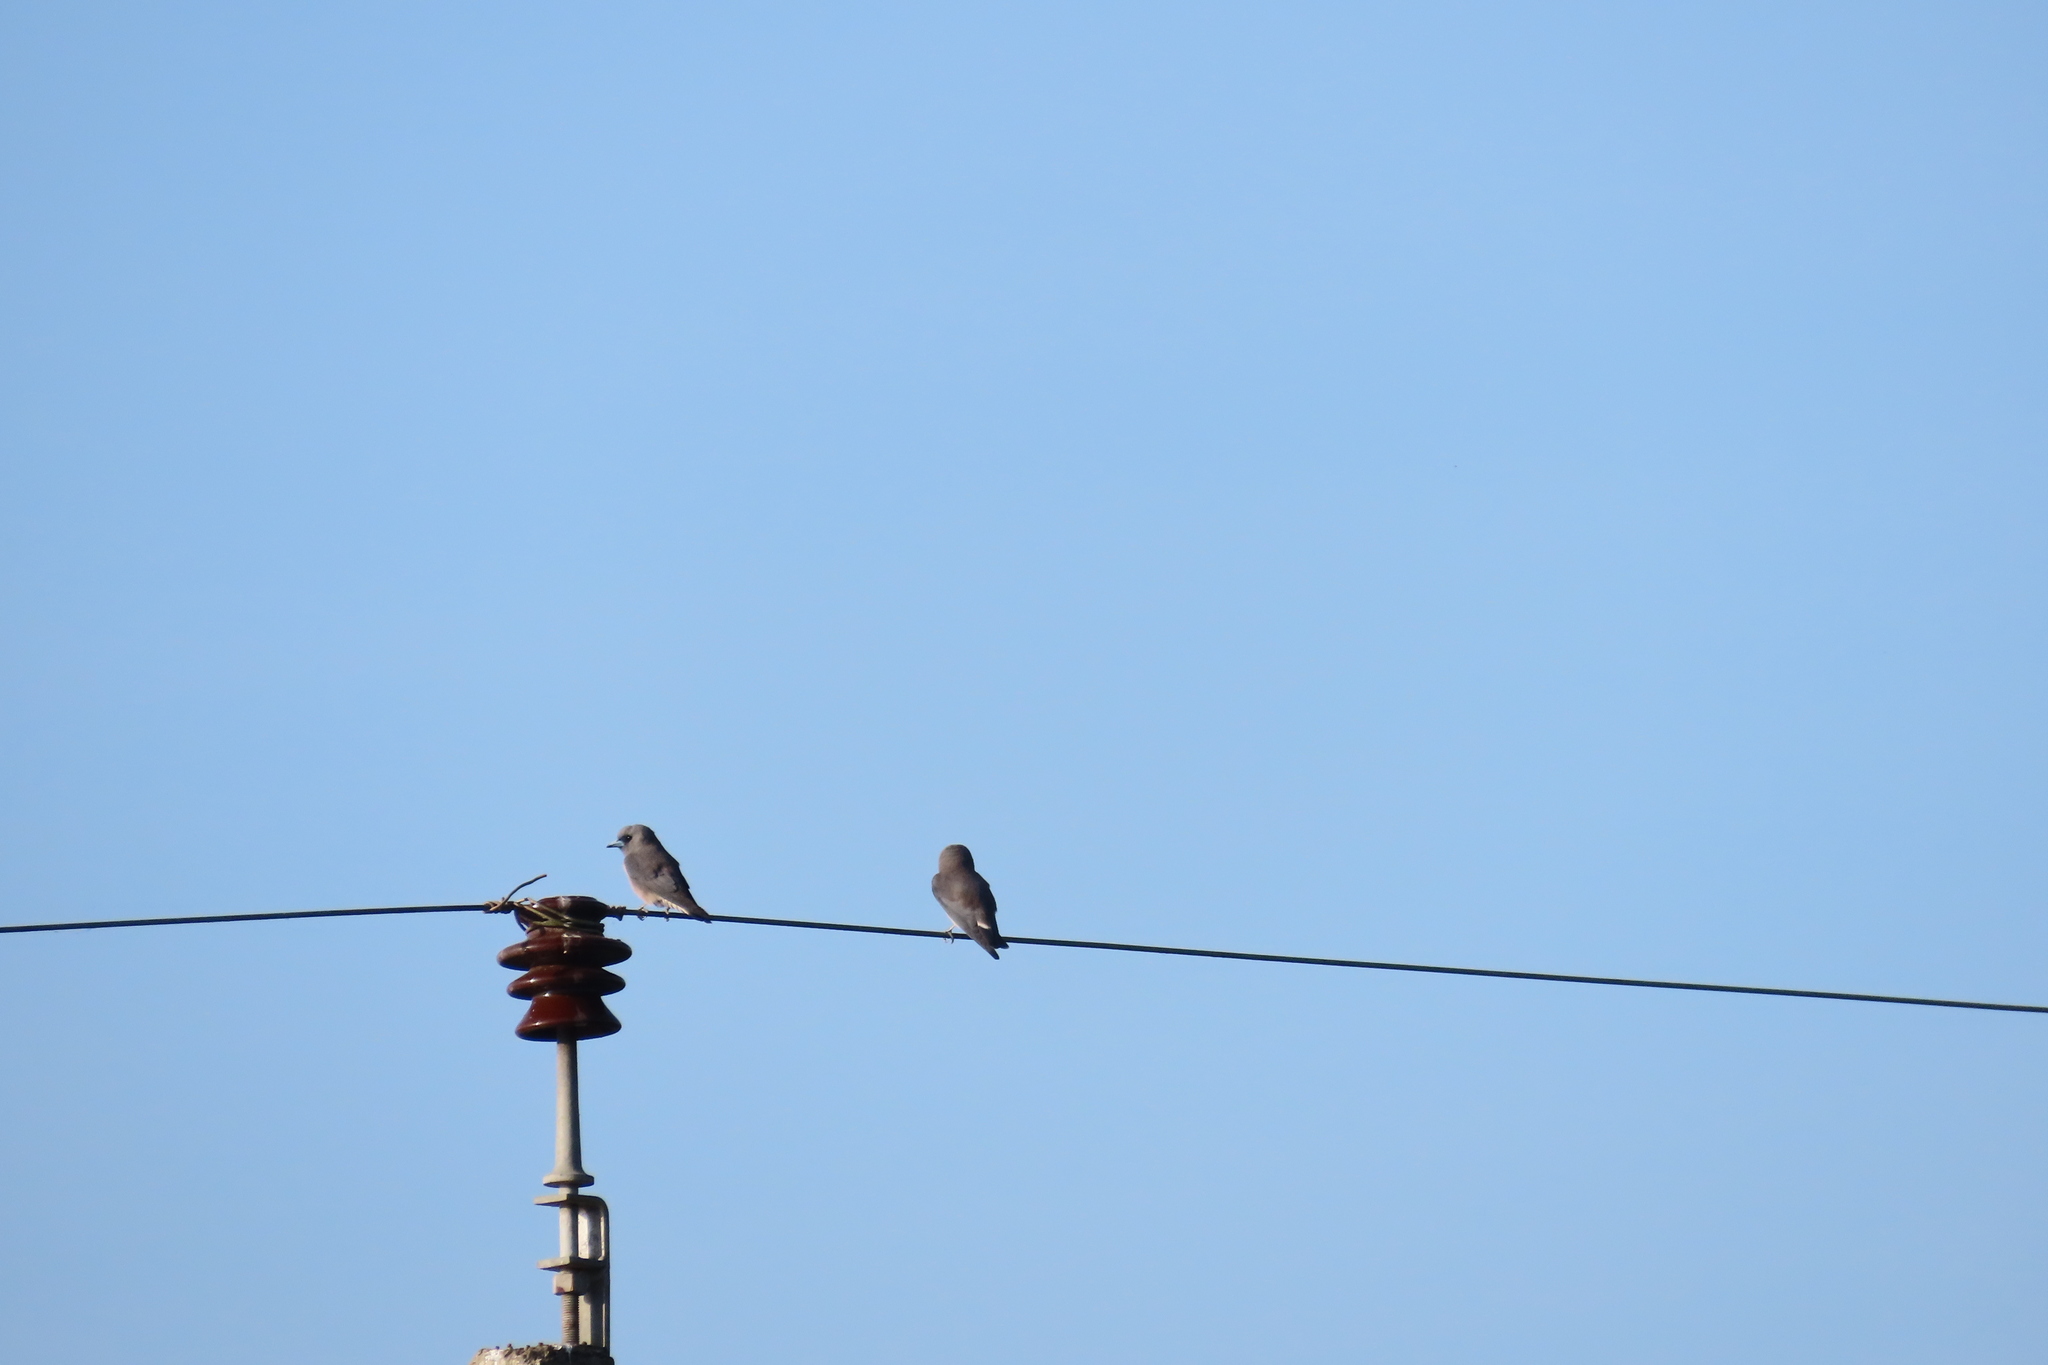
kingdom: Animalia
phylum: Chordata
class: Aves
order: Passeriformes
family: Artamidae
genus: Artamus
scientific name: Artamus fuscus
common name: Ashy woodswallow
